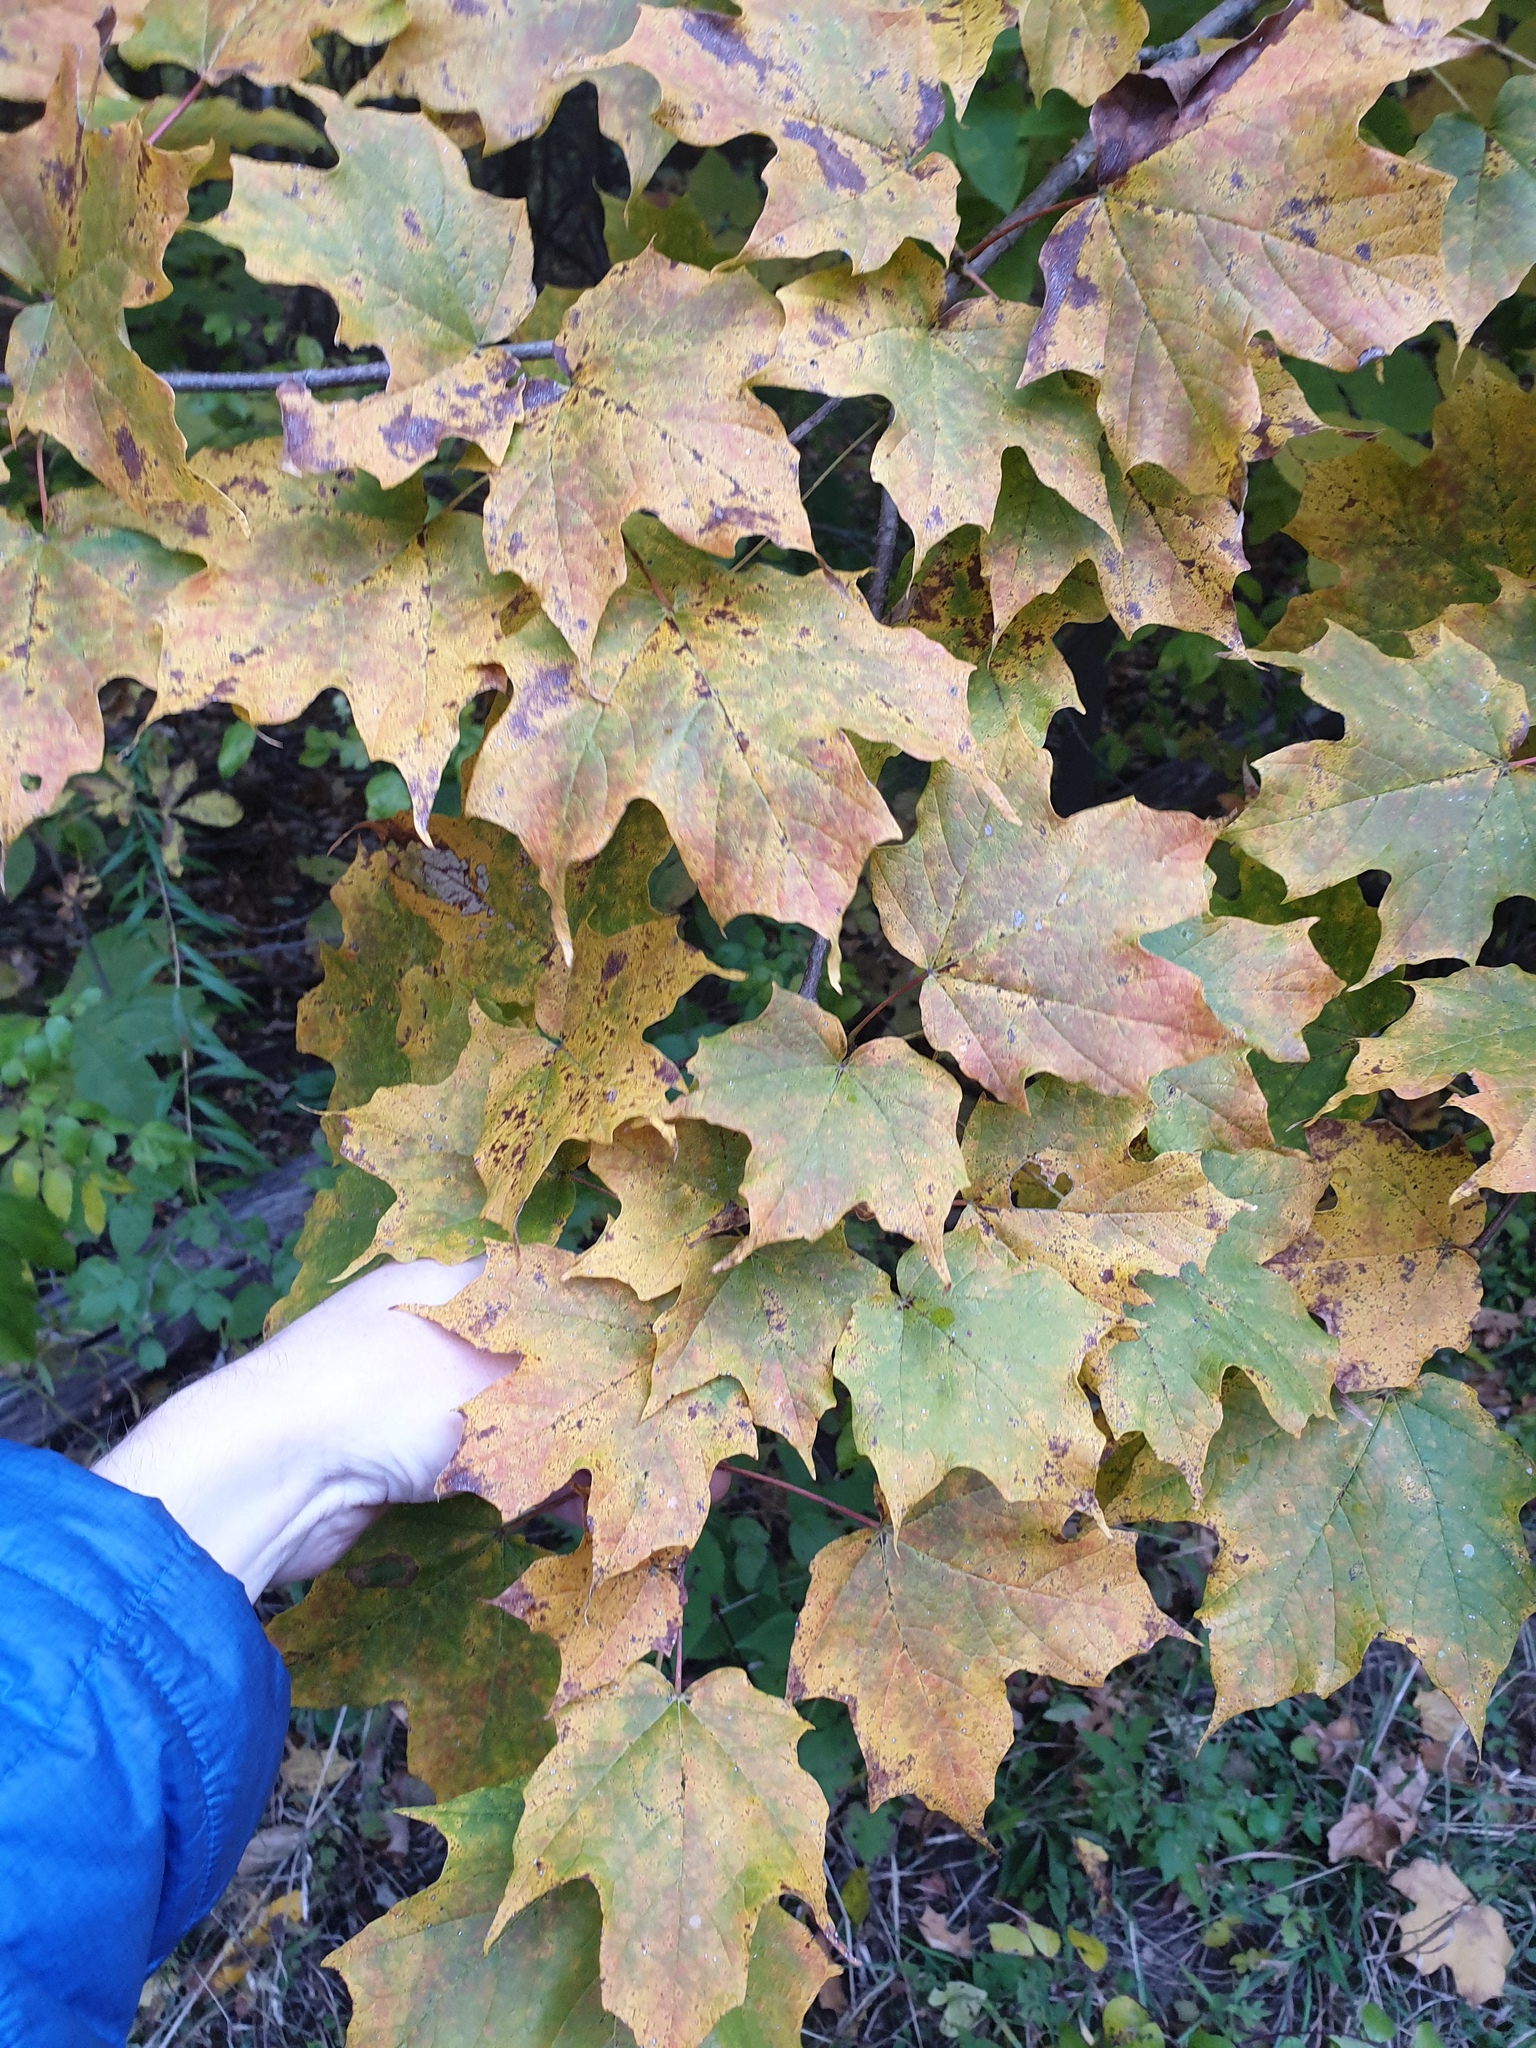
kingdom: Plantae
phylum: Tracheophyta
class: Magnoliopsida
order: Sapindales
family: Sapindaceae
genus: Acer
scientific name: Acer nigrum
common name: Black maple
